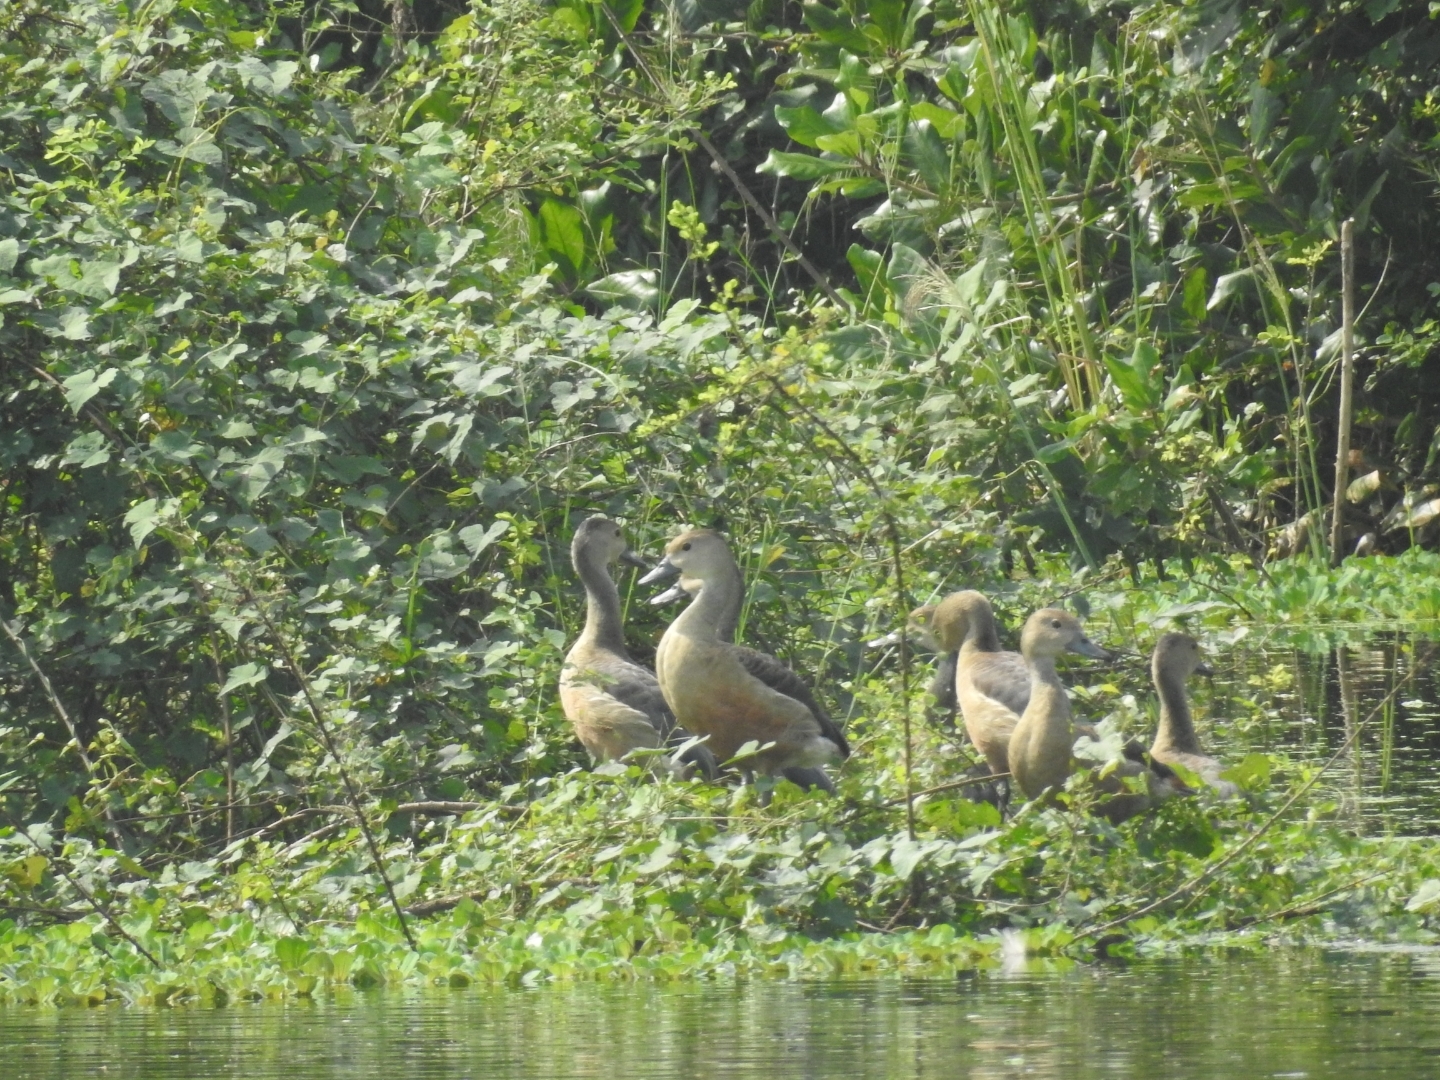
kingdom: Animalia
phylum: Chordata
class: Aves
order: Anseriformes
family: Anatidae
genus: Dendrocygna
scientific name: Dendrocygna javanica
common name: Lesser whistling-duck
